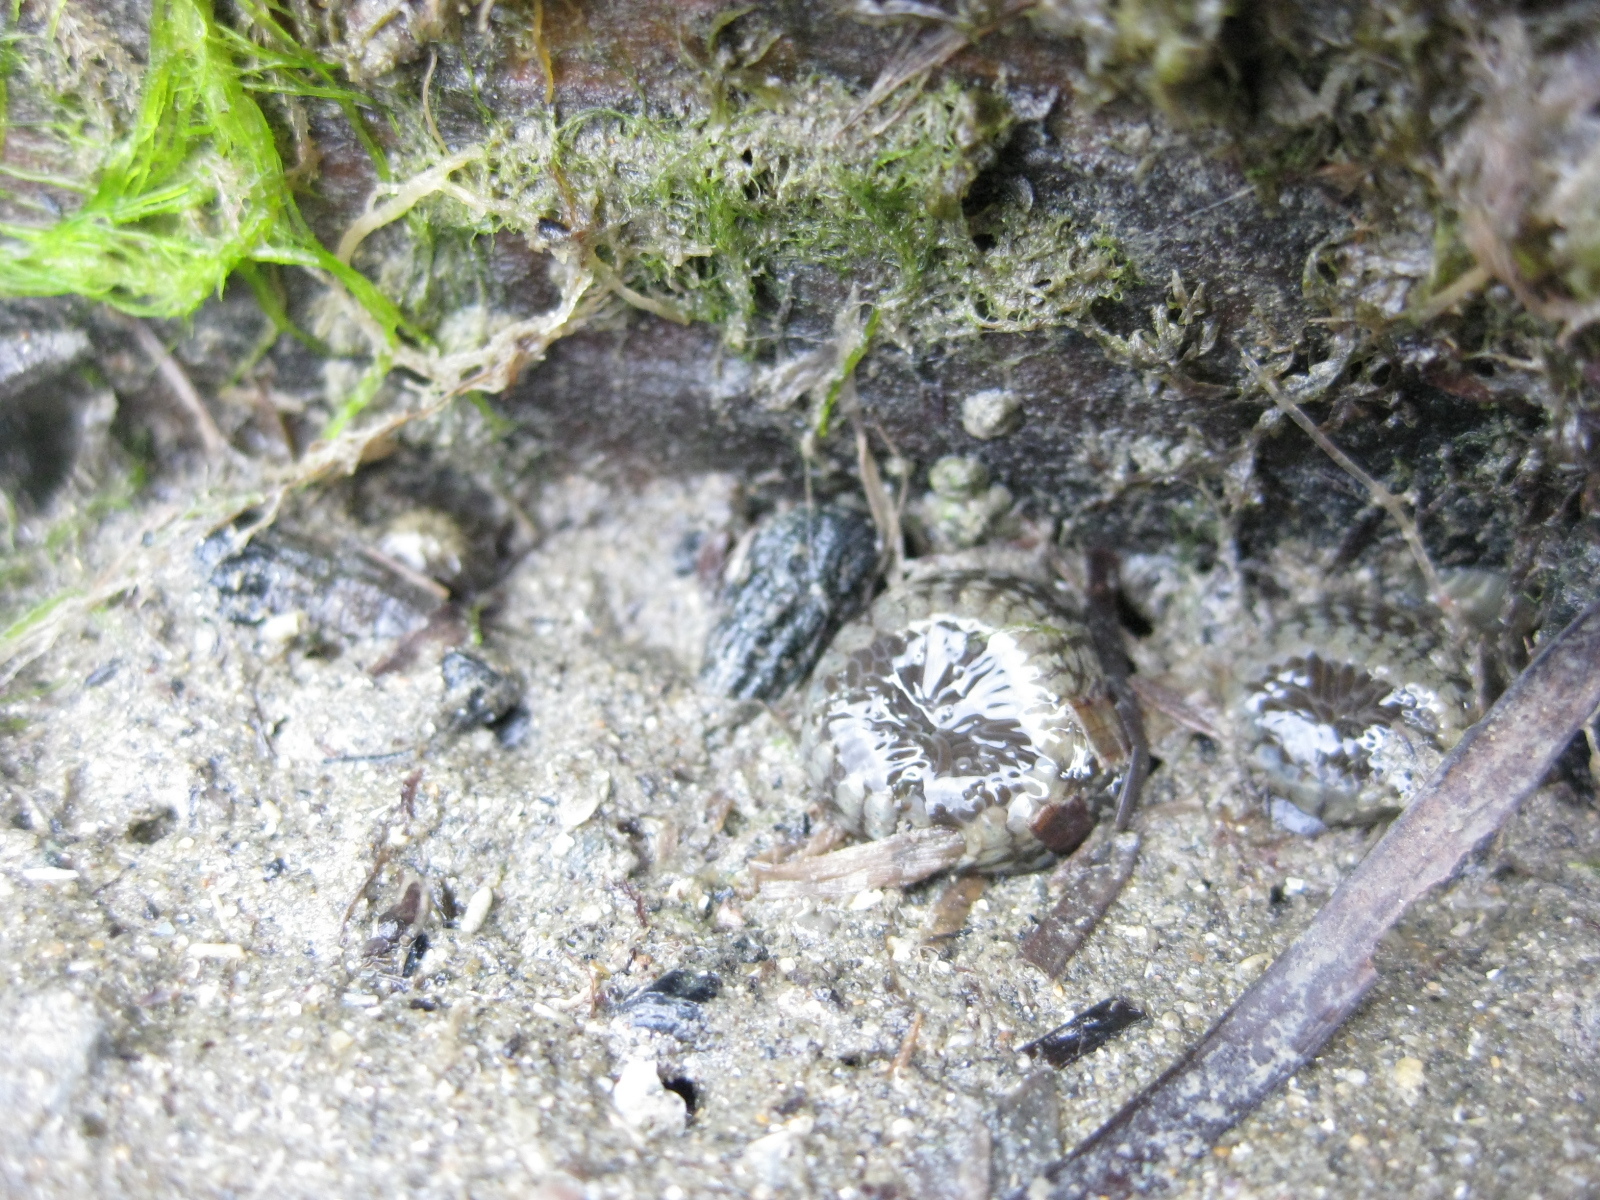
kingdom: Animalia
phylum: Cnidaria
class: Anthozoa
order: Actiniaria
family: Actiniidae
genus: Anthopleura
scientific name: Anthopleura hermaphroditica
